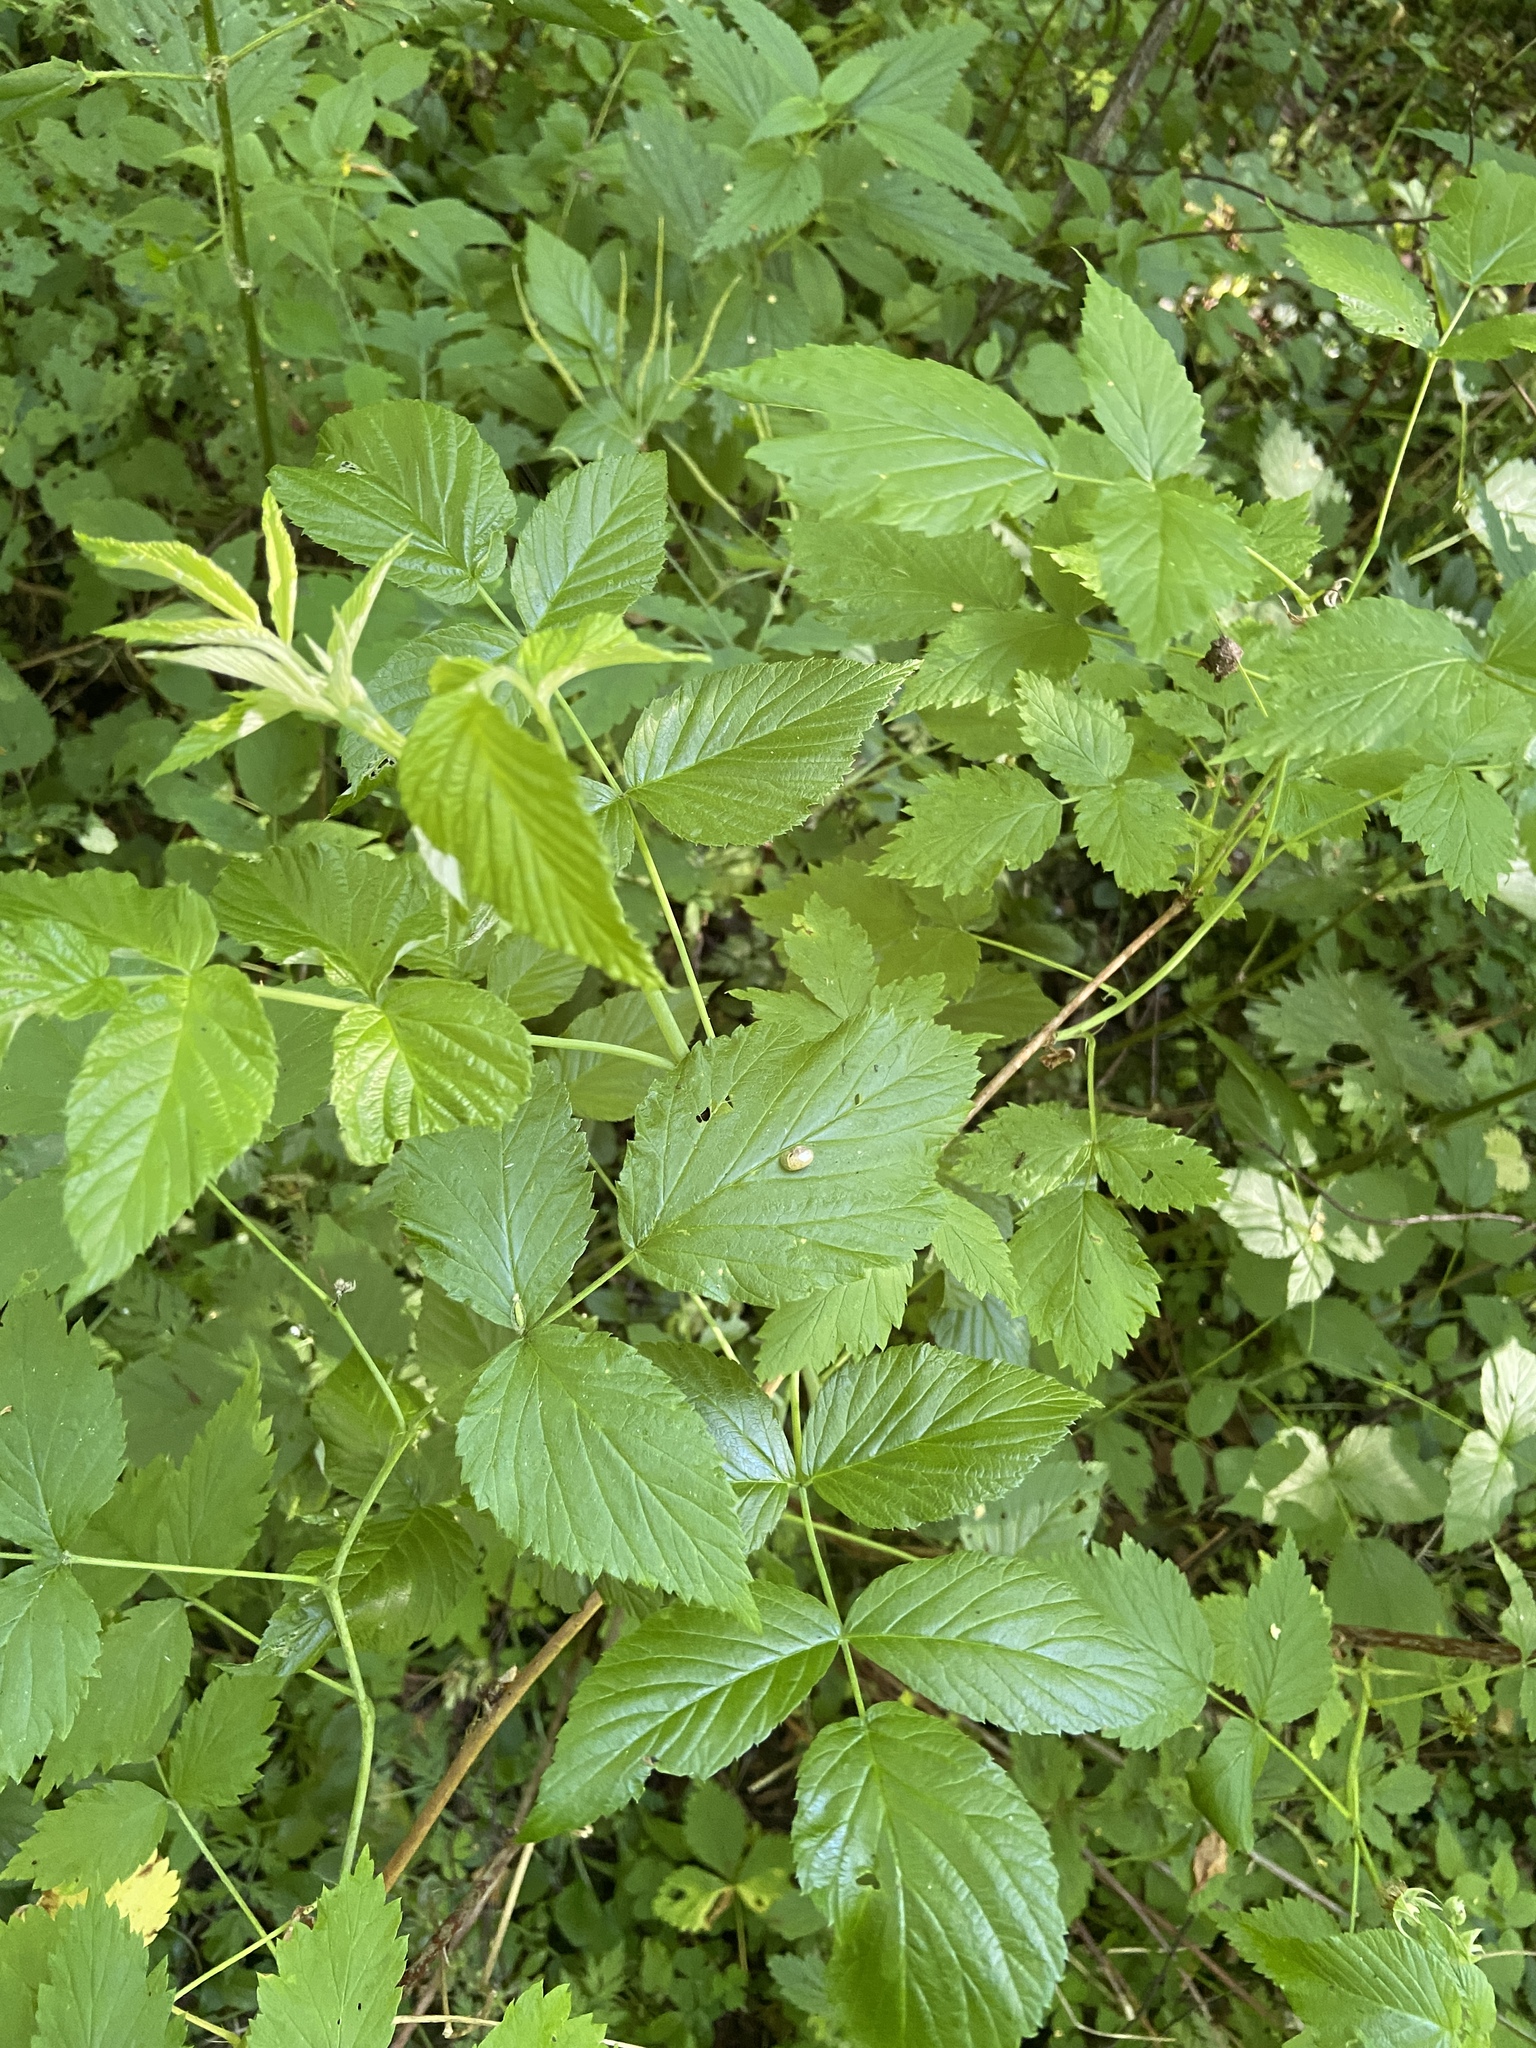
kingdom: Plantae
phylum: Tracheophyta
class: Magnoliopsida
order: Rosales
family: Rosaceae
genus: Rubus
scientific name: Rubus idaeus
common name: Raspberry
